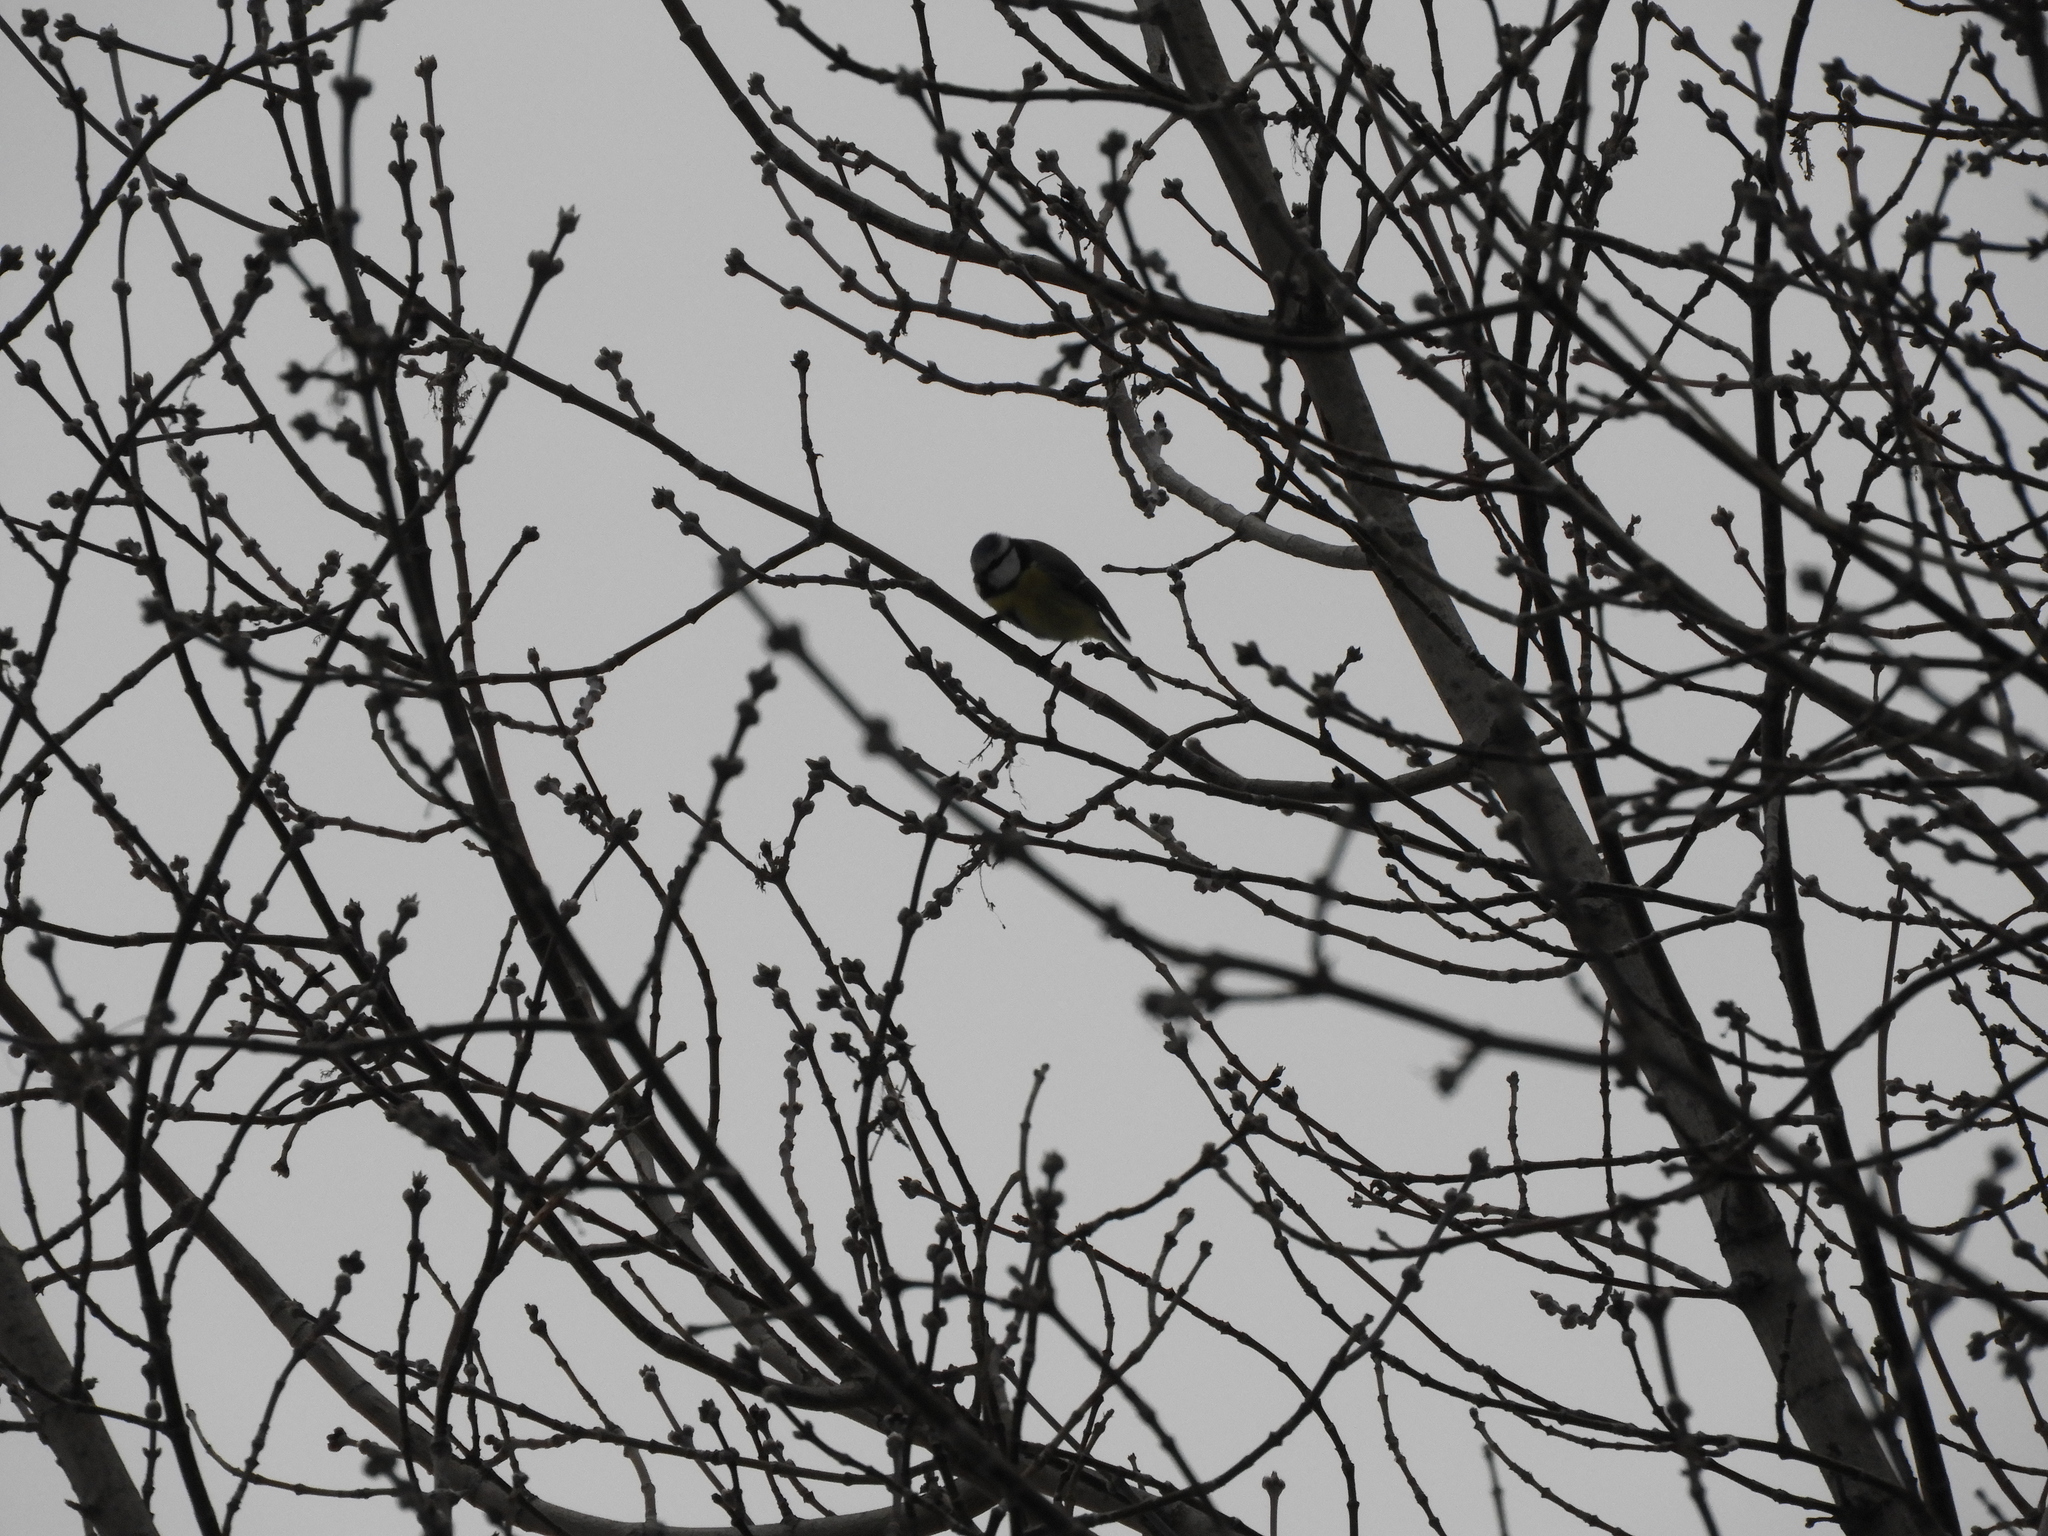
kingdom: Animalia
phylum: Chordata
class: Aves
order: Passeriformes
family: Paridae
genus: Cyanistes
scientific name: Cyanistes caeruleus
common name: Eurasian blue tit
